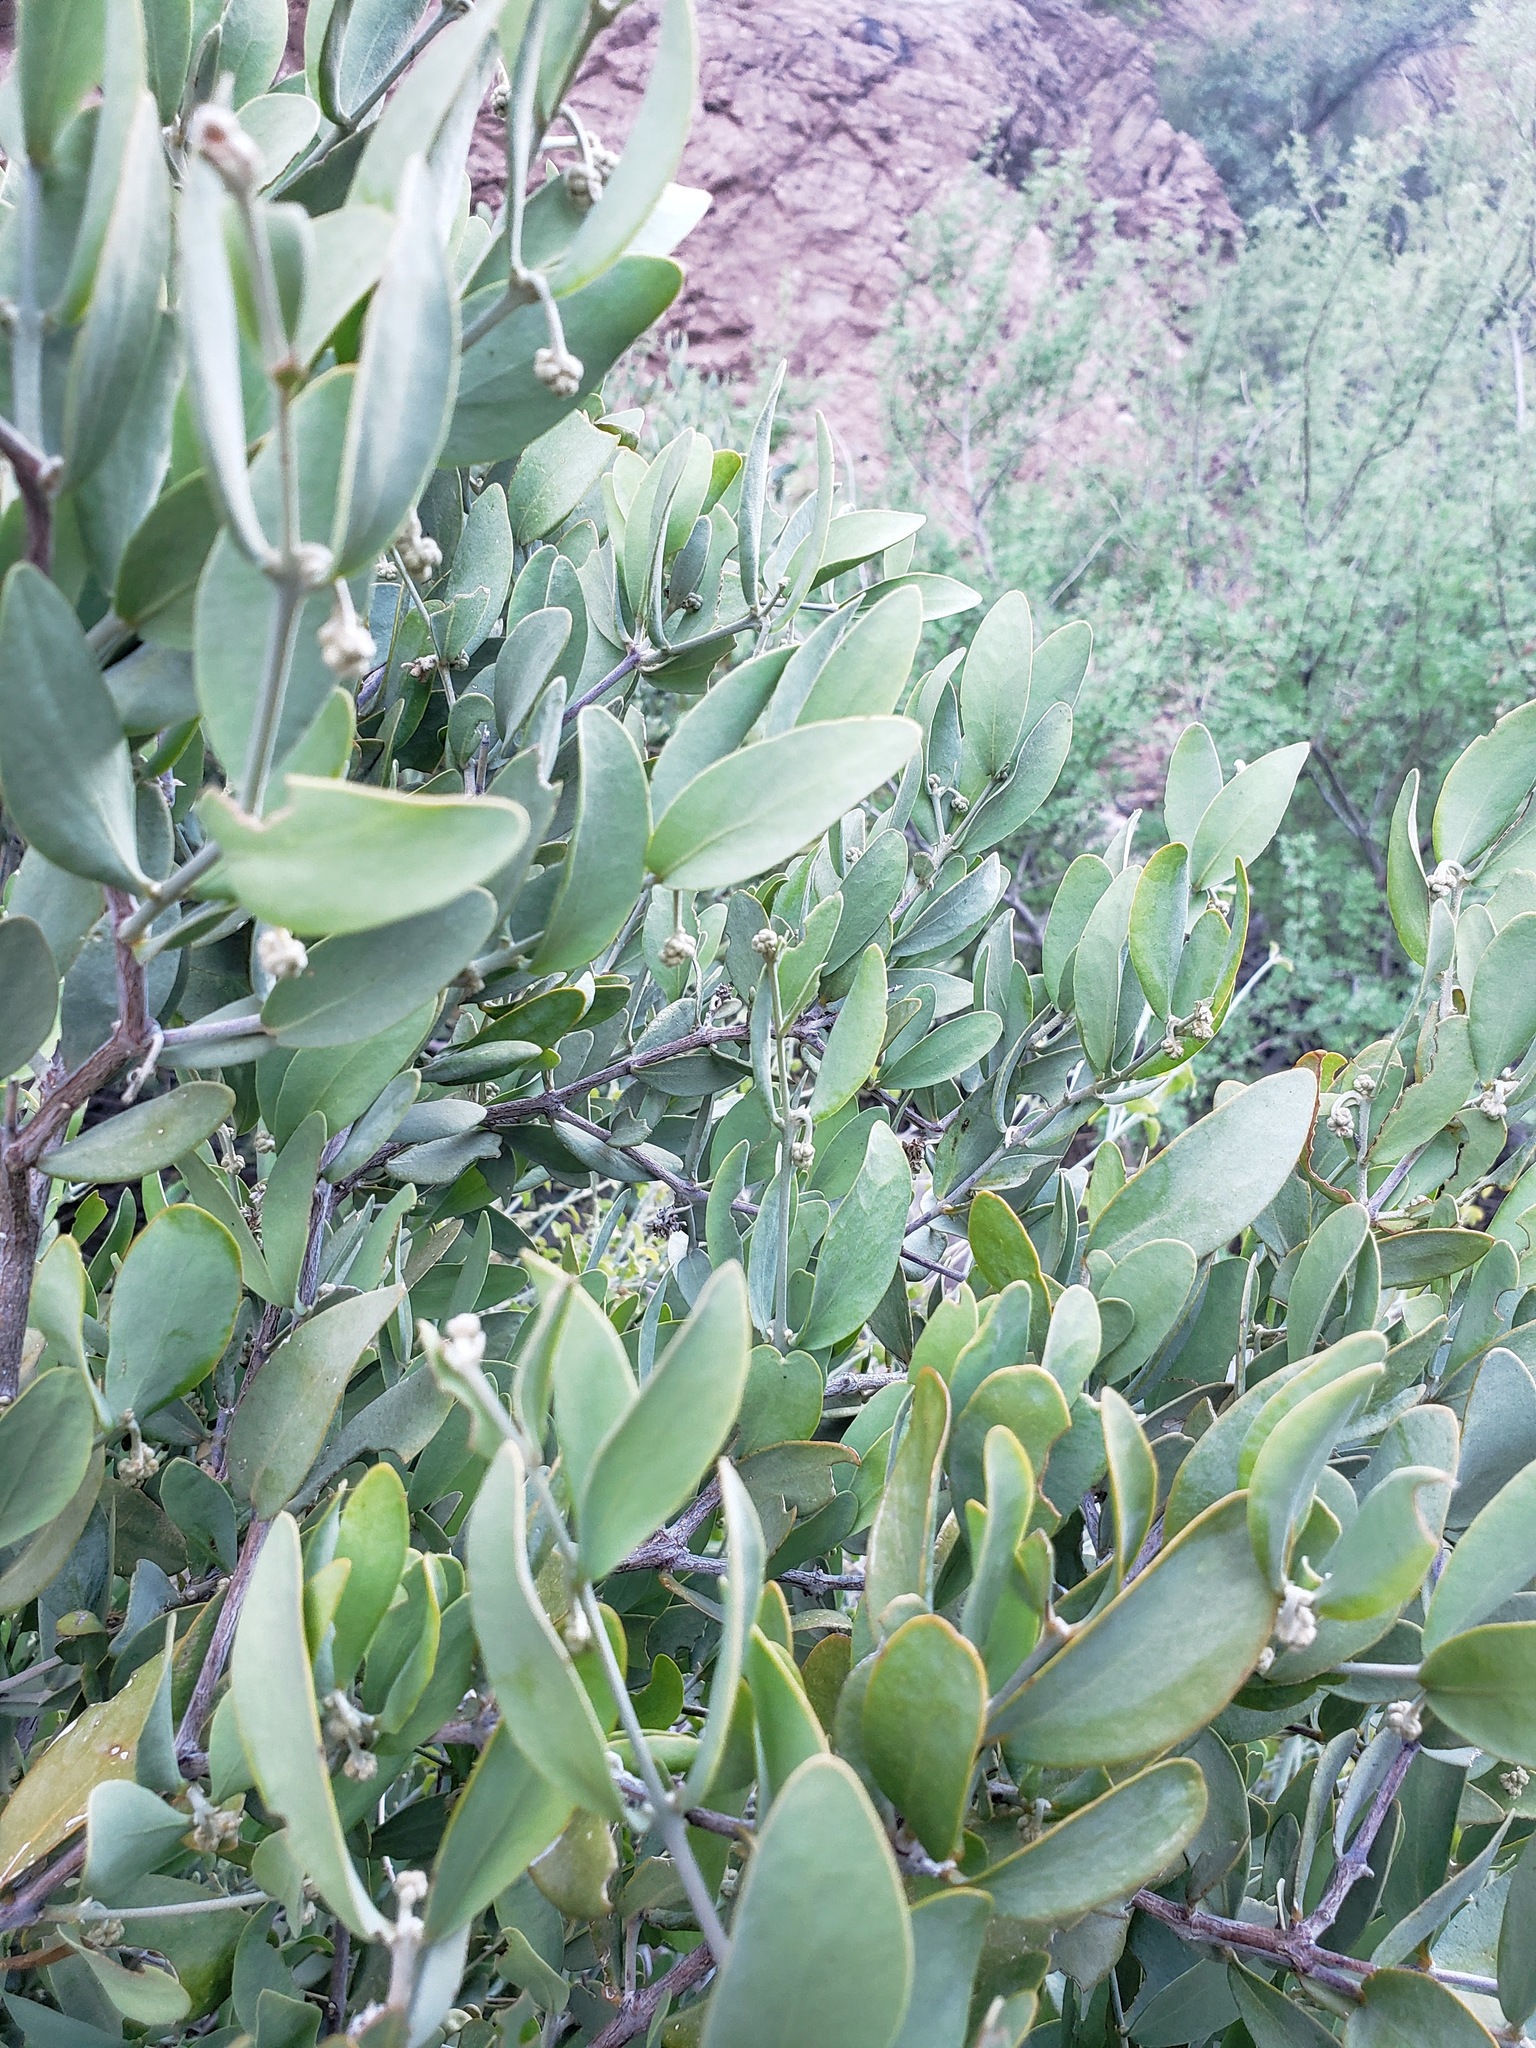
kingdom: Plantae
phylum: Tracheophyta
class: Magnoliopsida
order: Caryophyllales
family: Simmondsiaceae
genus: Simmondsia
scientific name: Simmondsia chinensis
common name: Jojoba
